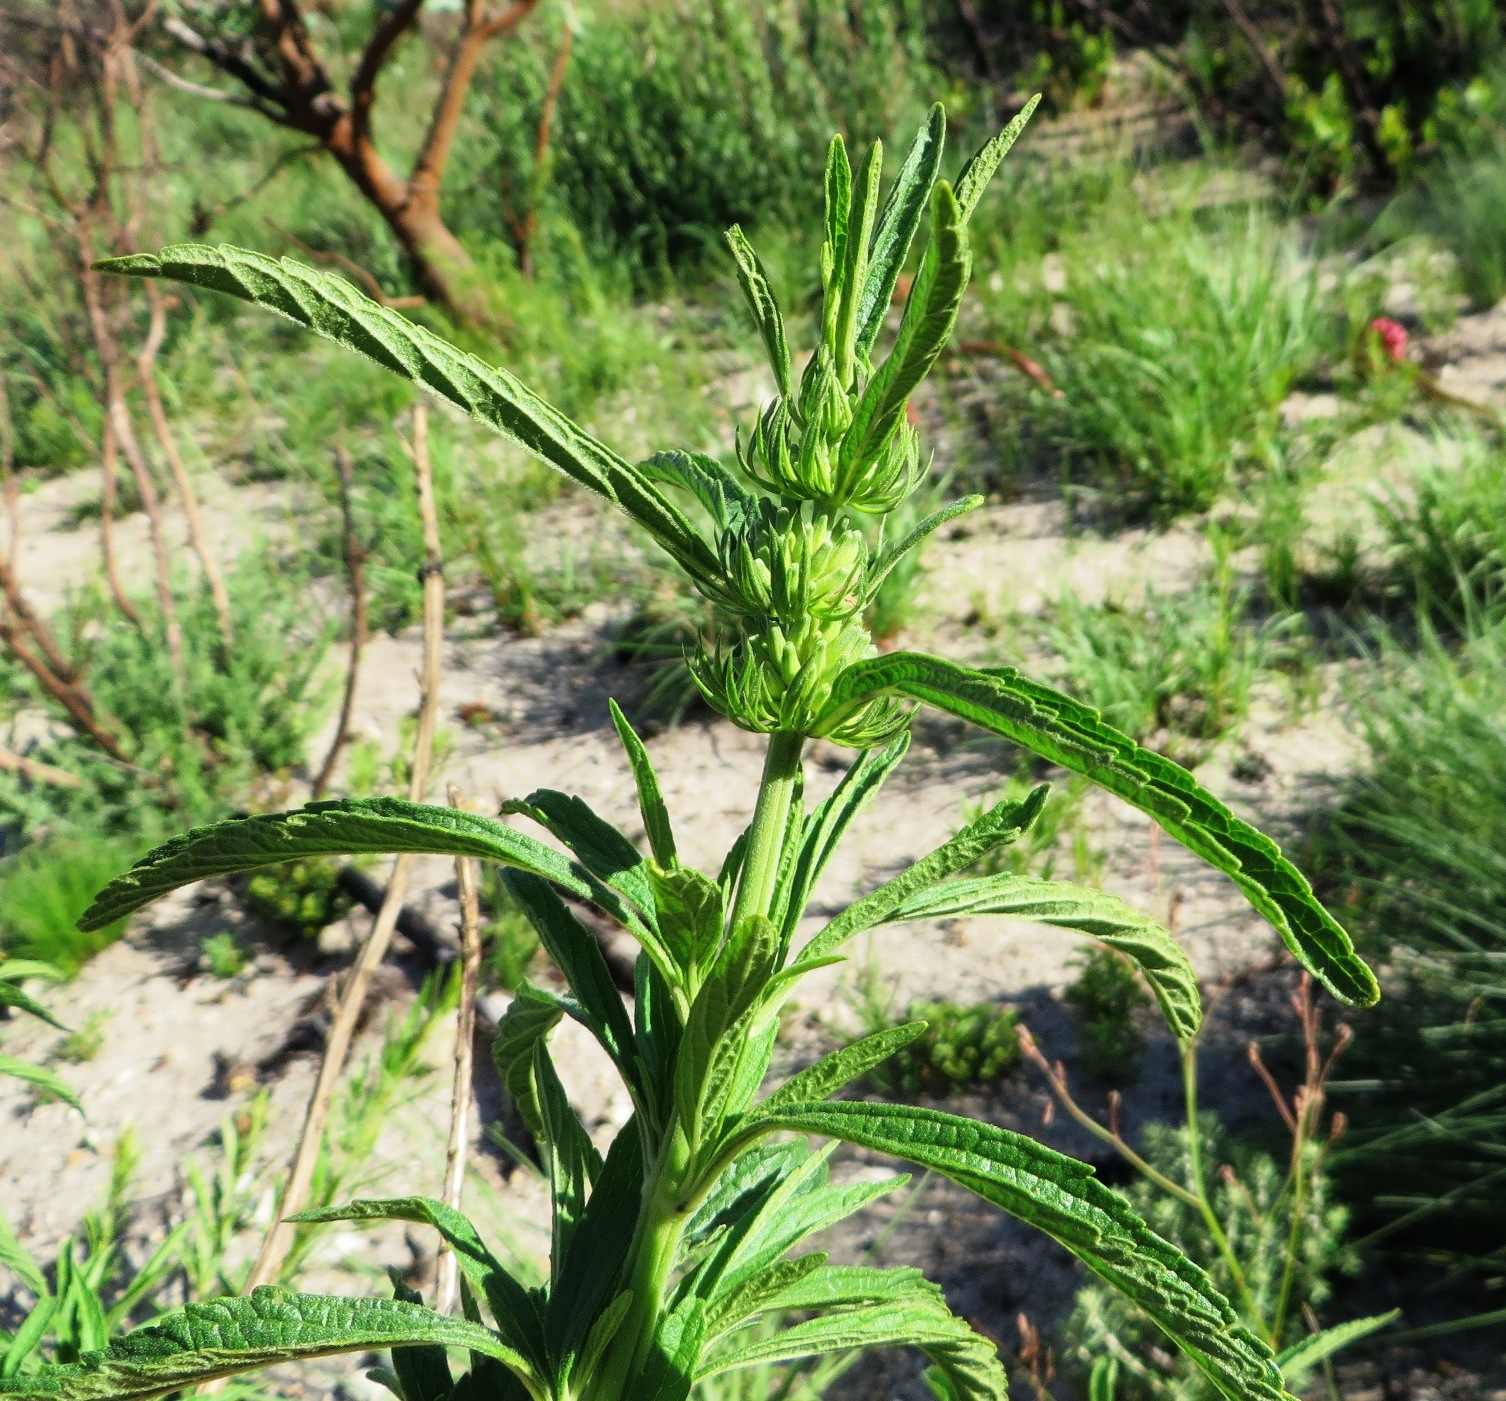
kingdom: Plantae
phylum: Tracheophyta
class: Magnoliopsida
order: Lamiales
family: Lamiaceae
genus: Leonotis
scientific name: Leonotis leonurus
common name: Lion's ear
